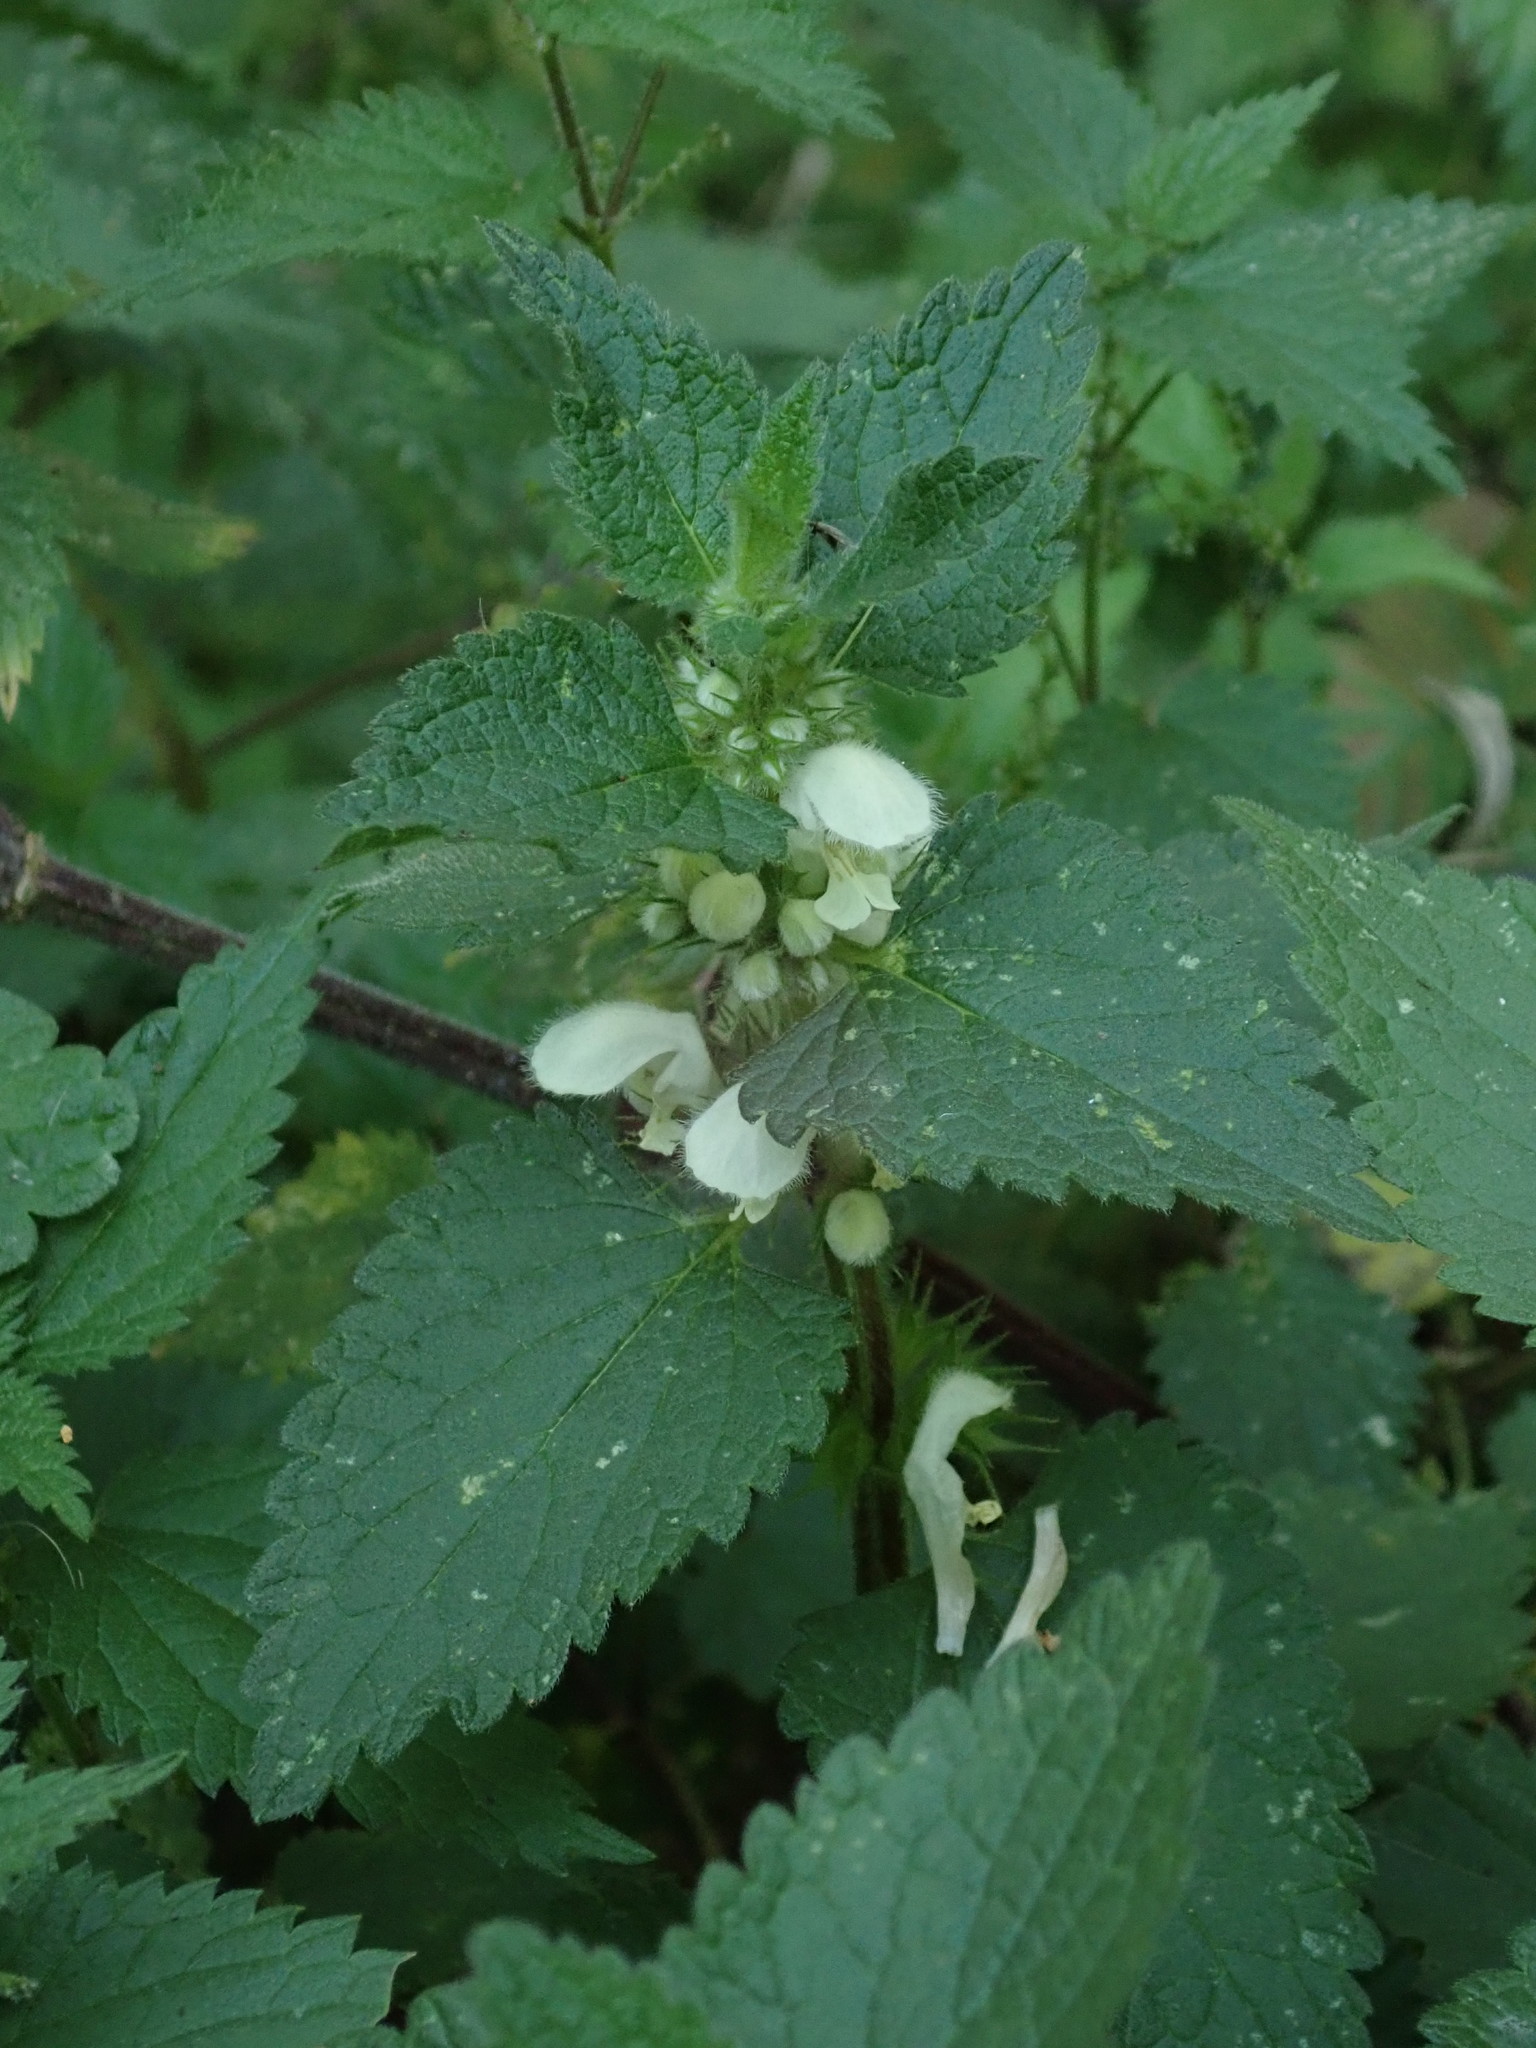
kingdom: Plantae
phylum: Tracheophyta
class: Magnoliopsida
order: Lamiales
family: Lamiaceae
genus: Lamium
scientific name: Lamium album
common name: White dead-nettle
